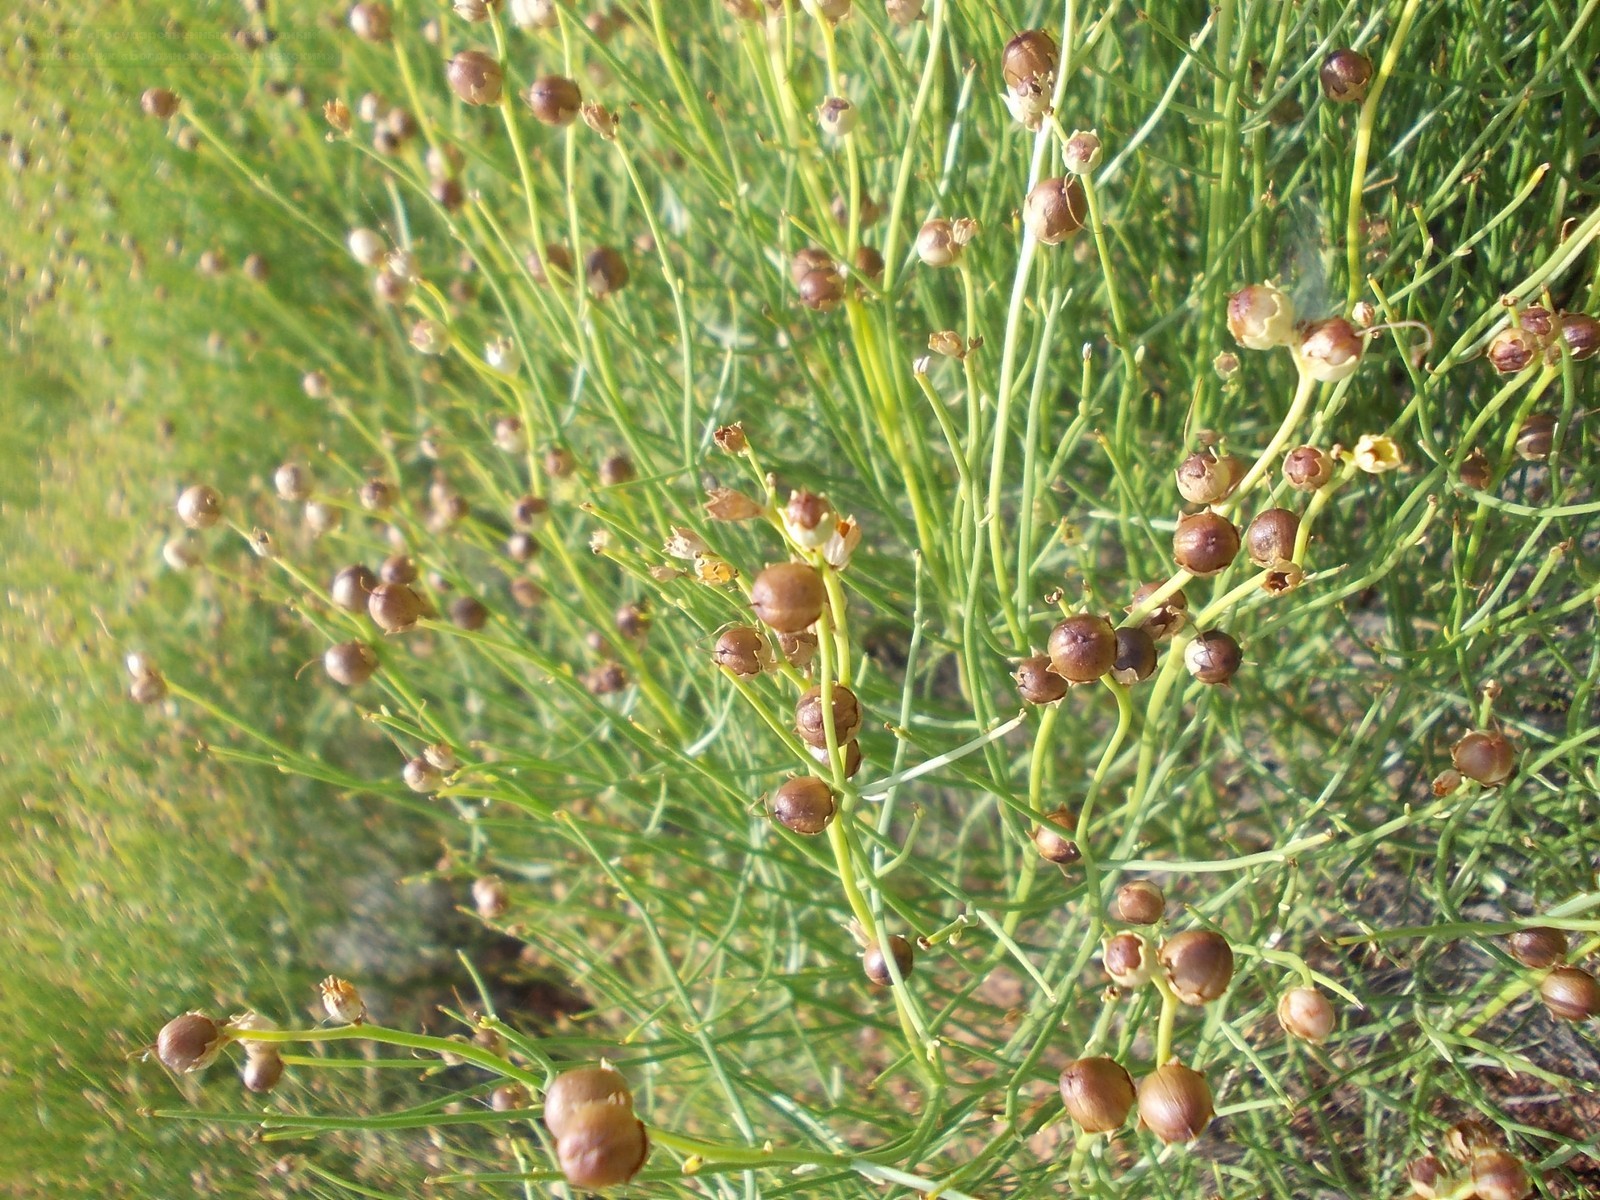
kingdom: Plantae
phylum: Tracheophyta
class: Magnoliopsida
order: Lamiales
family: Mazaceae
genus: Dodartia
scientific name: Dodartia orientalis
